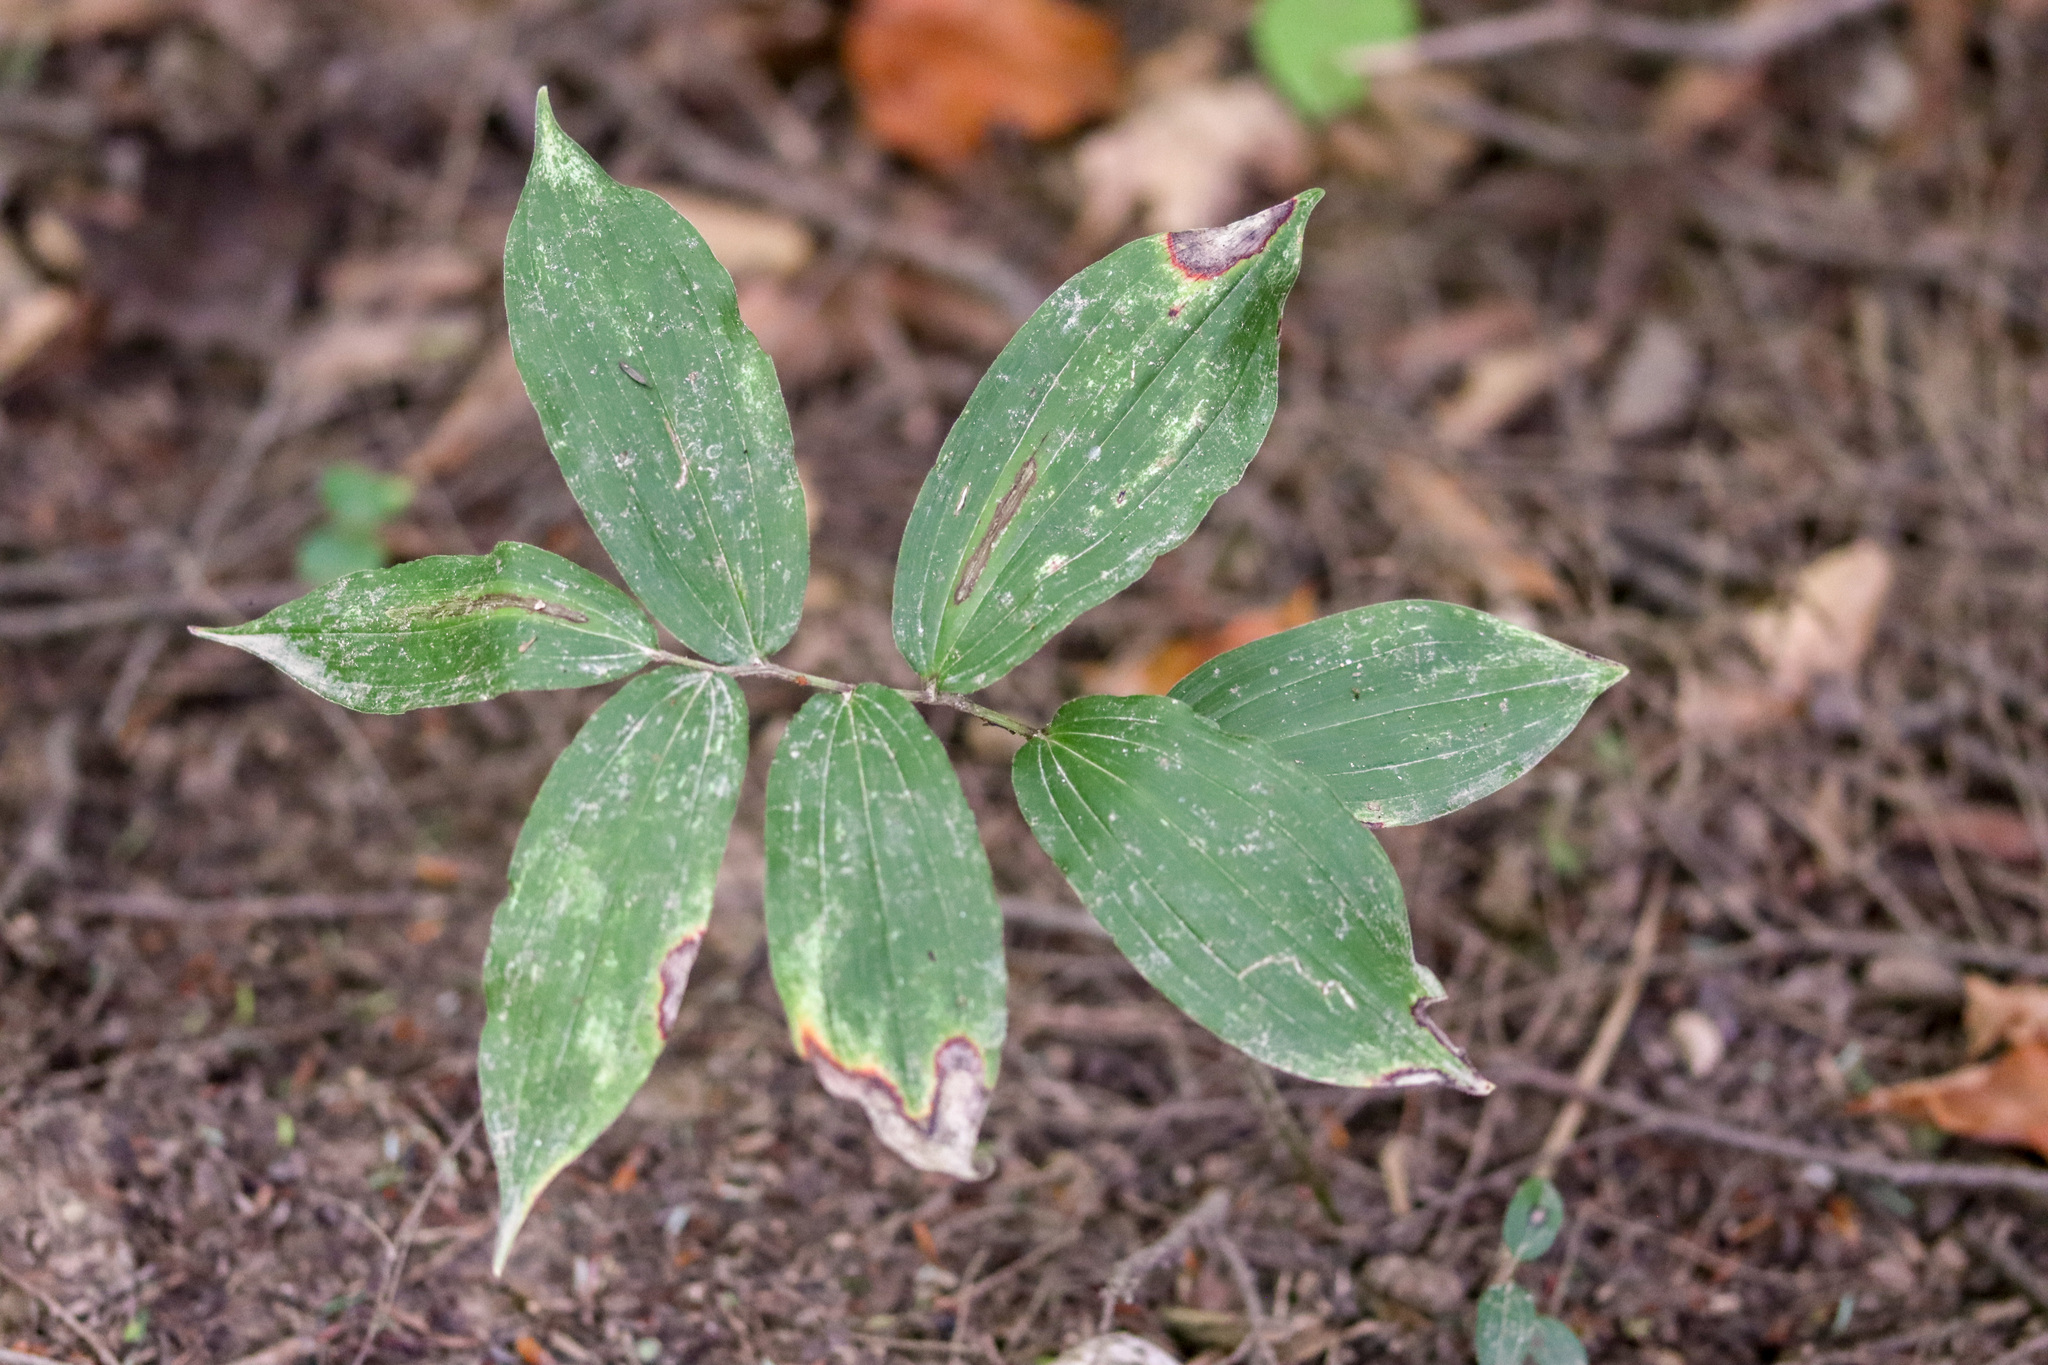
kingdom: Plantae
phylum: Tracheophyta
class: Liliopsida
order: Asparagales
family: Asparagaceae
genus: Maianthemum
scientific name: Maianthemum racemosum
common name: False spikenard
